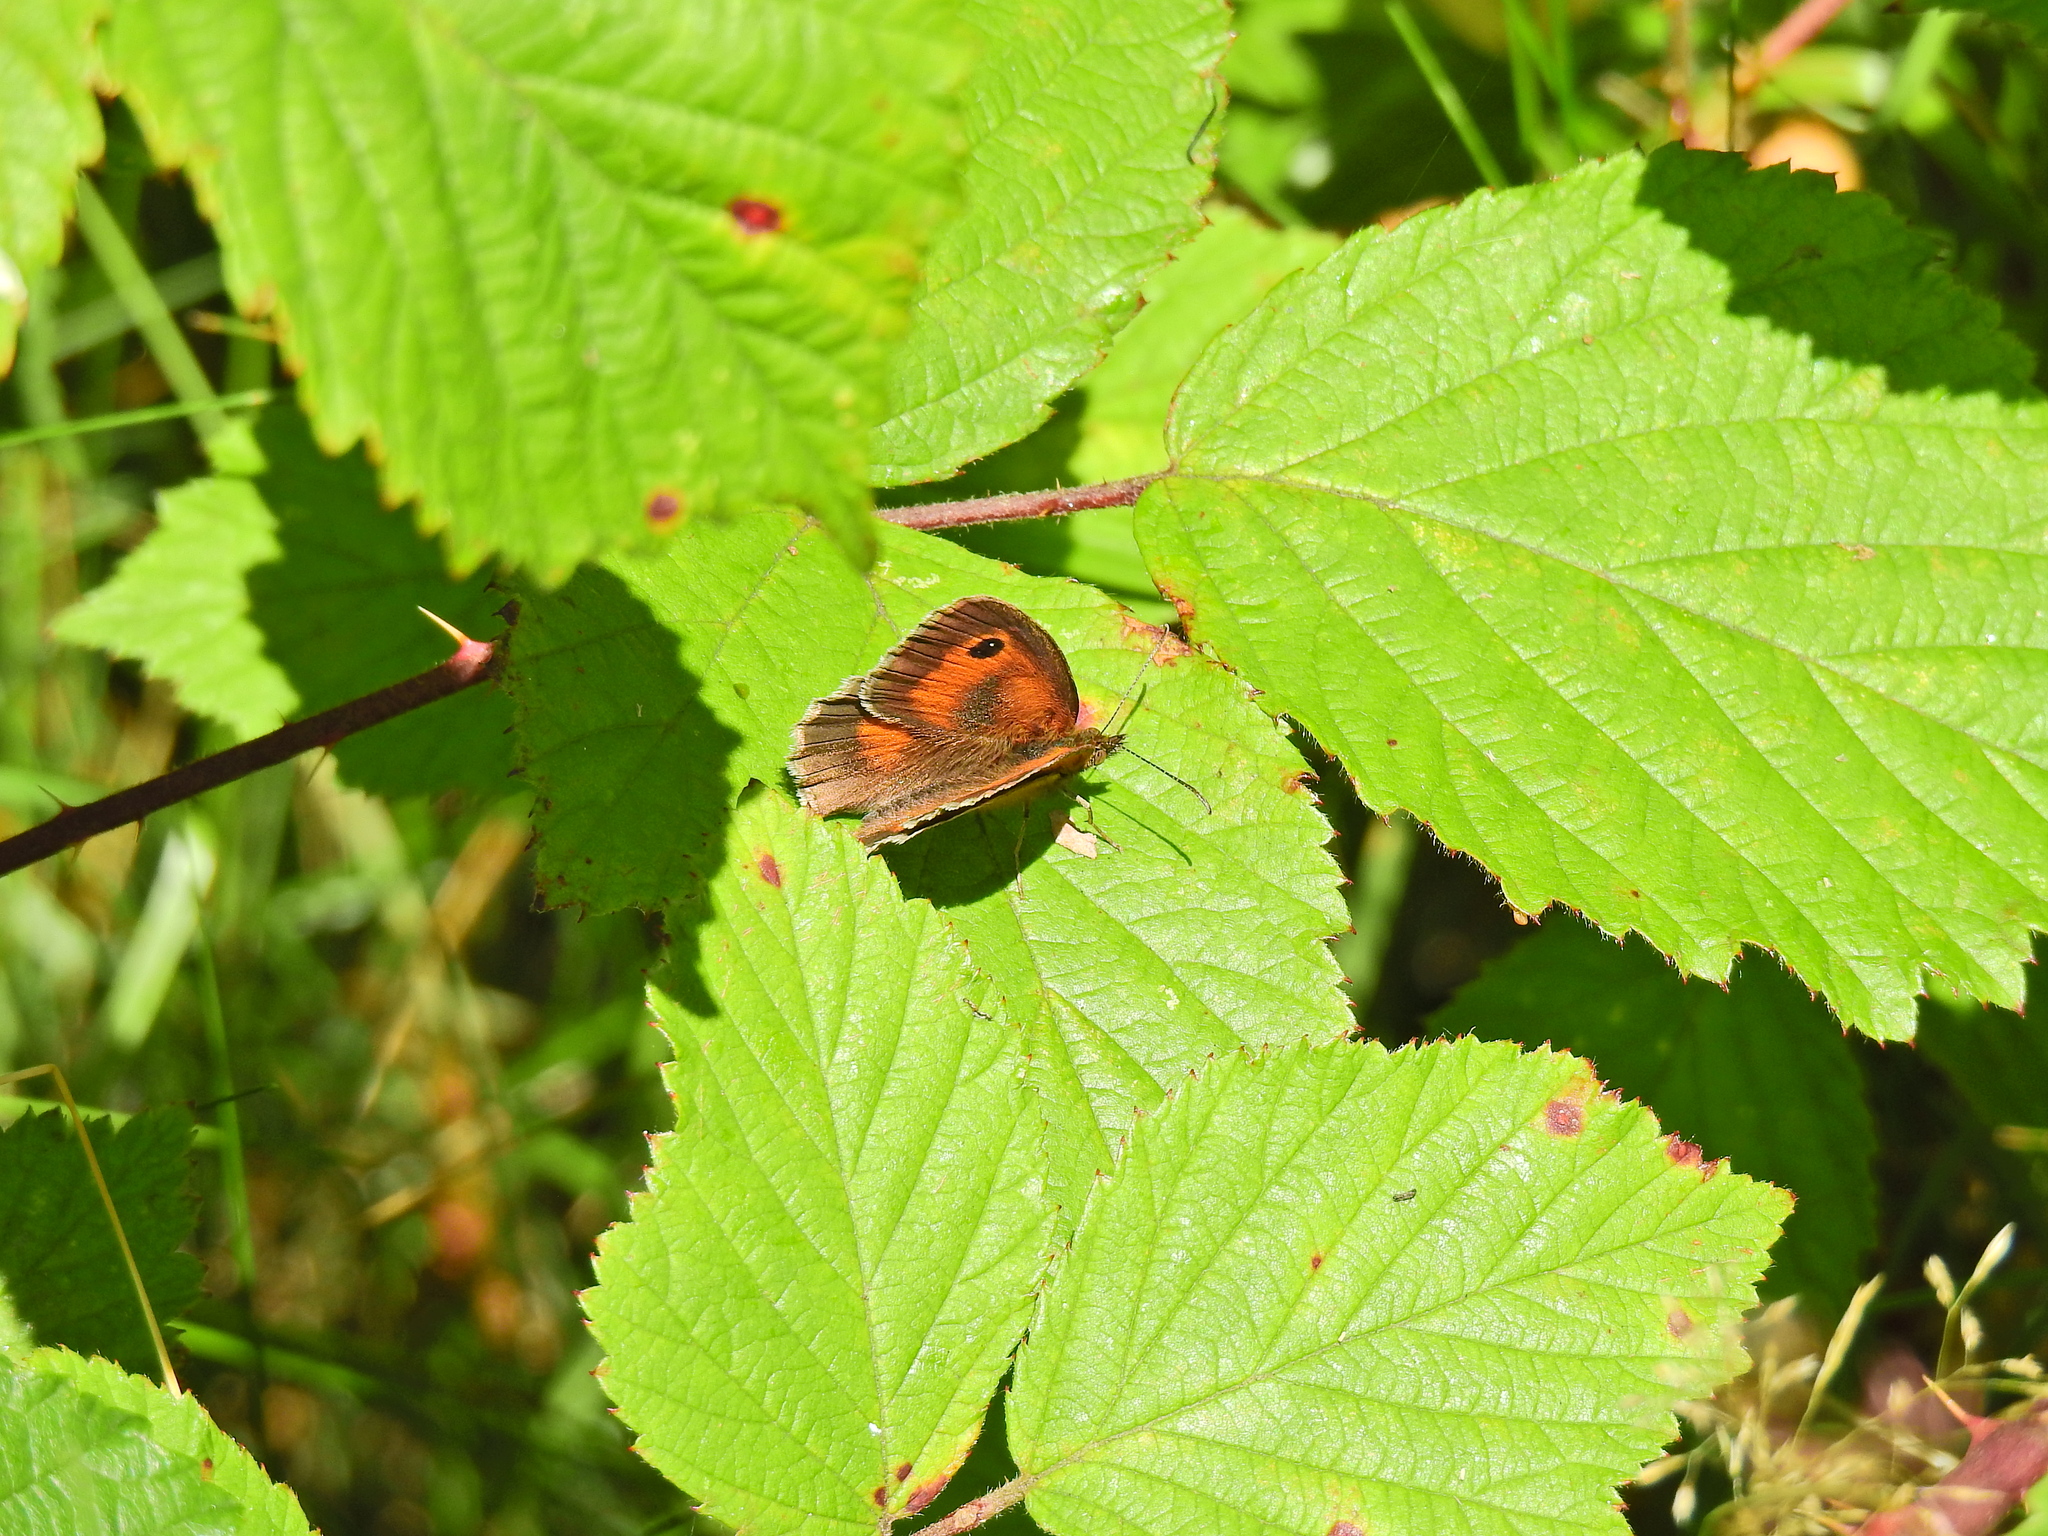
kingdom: Animalia
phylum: Arthropoda
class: Insecta
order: Lepidoptera
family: Nymphalidae
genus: Pyronia
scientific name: Pyronia tithonus
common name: Gatekeeper
